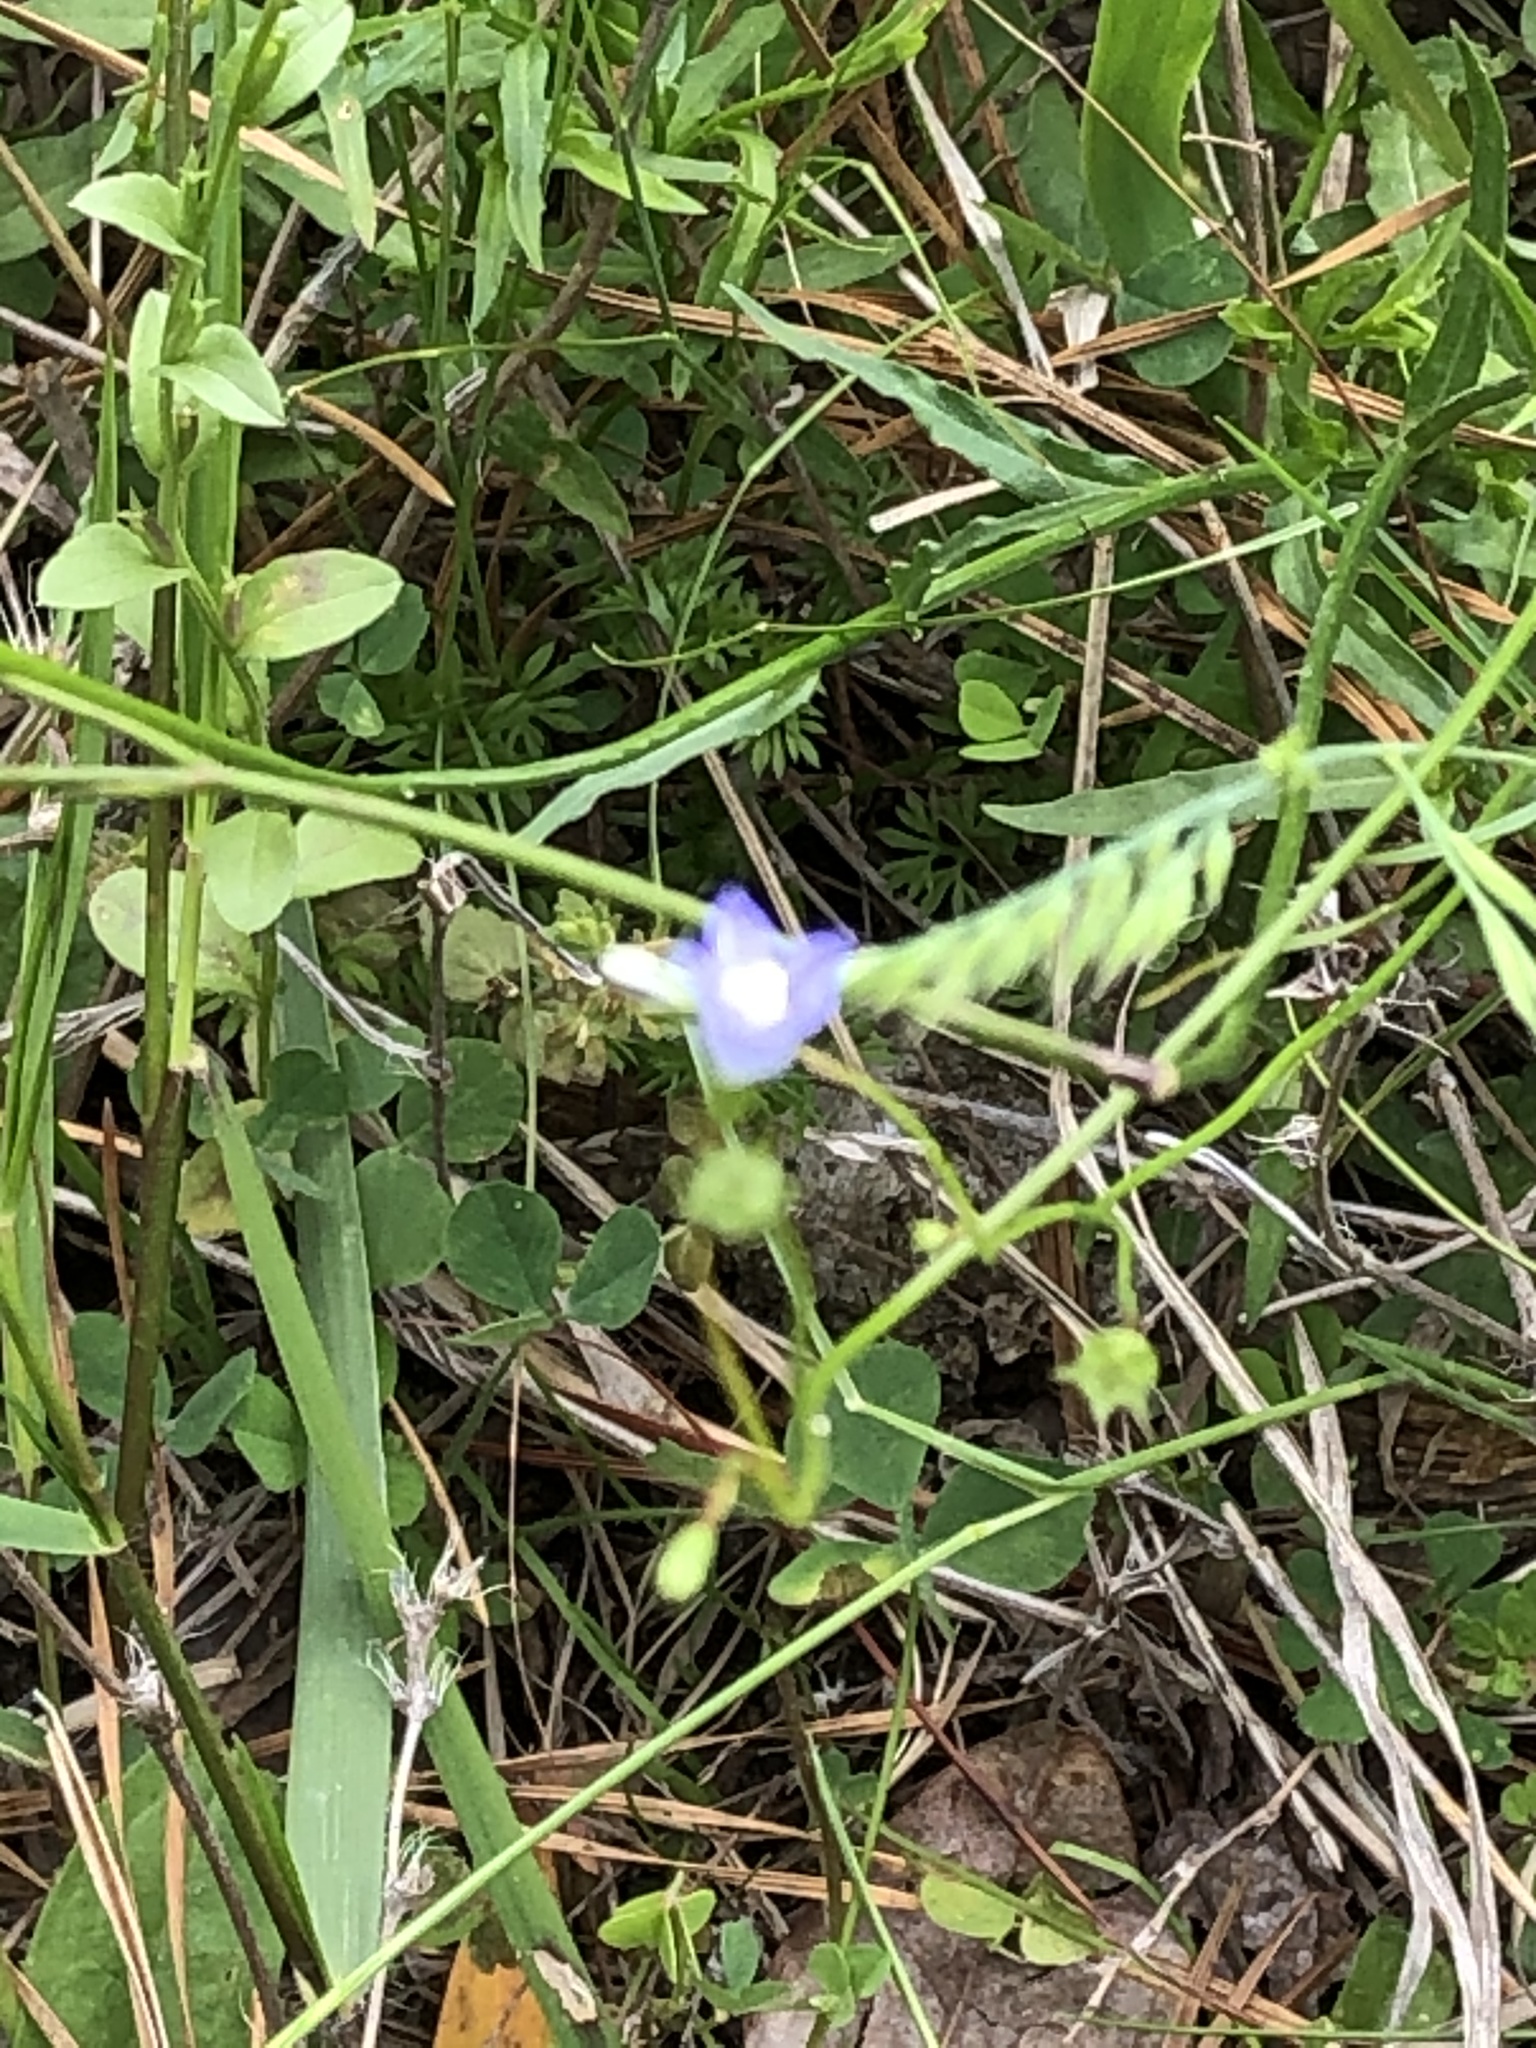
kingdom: Plantae
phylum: Tracheophyta
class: Magnoliopsida
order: Asterales
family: Campanulaceae
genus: Wahlenbergia
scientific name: Wahlenbergia marginata
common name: Southern rockbell
